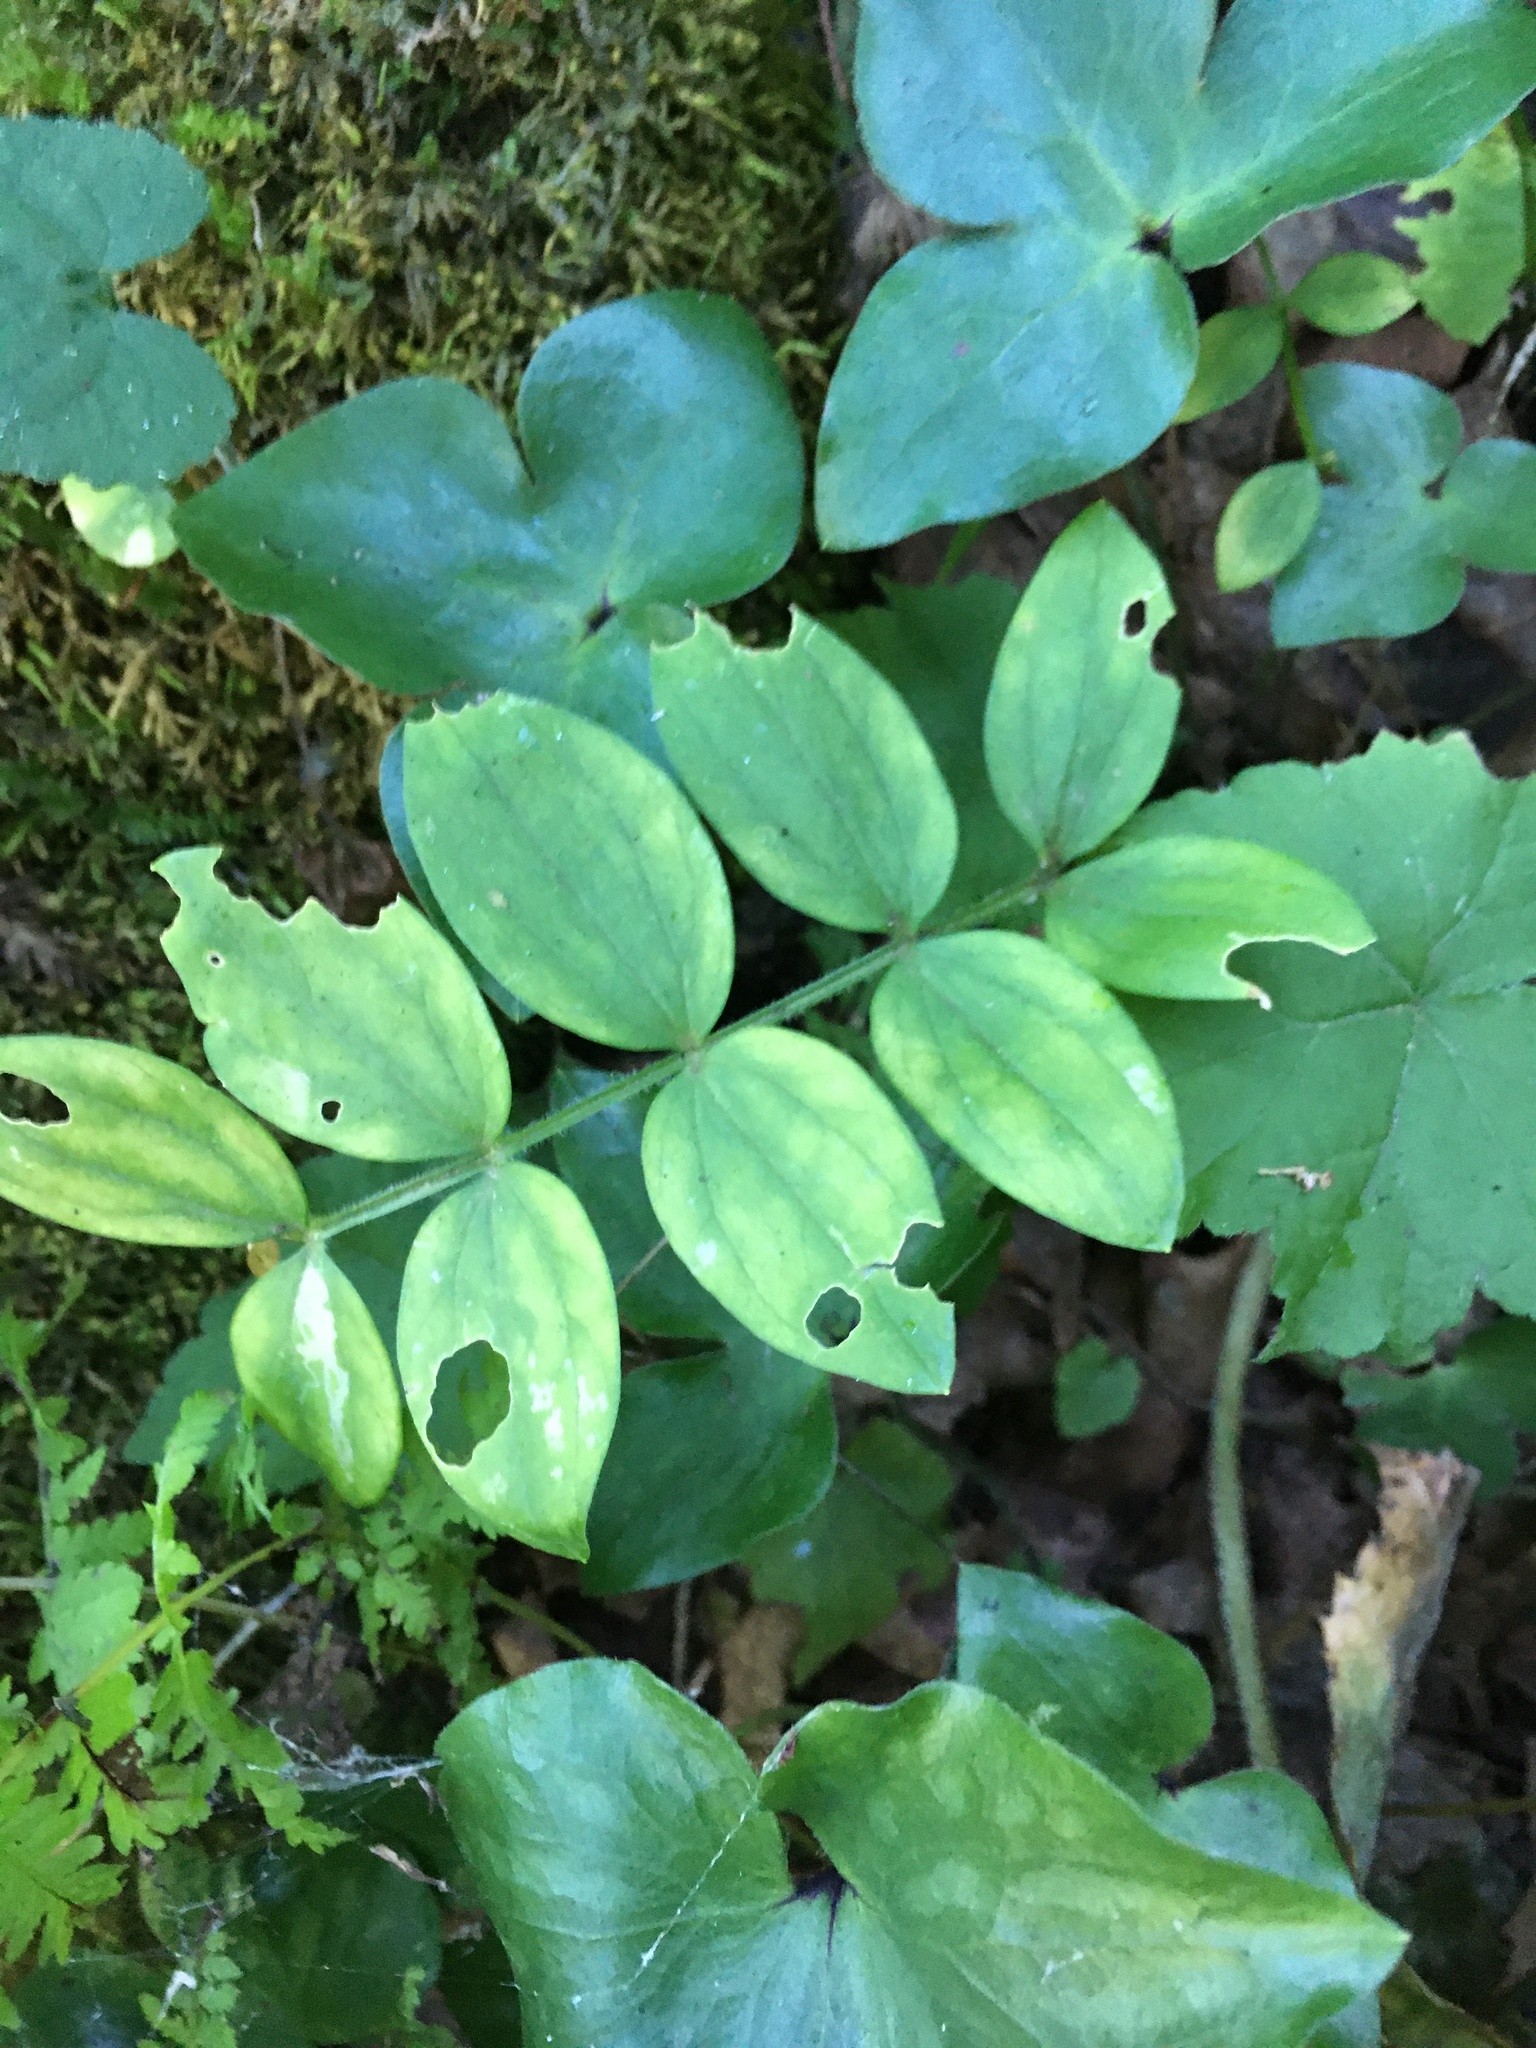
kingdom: Plantae
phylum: Tracheophyta
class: Magnoliopsida
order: Ericales
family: Polemoniaceae
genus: Polemonium
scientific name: Polemonium reptans
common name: Creeping jacob's-ladder
